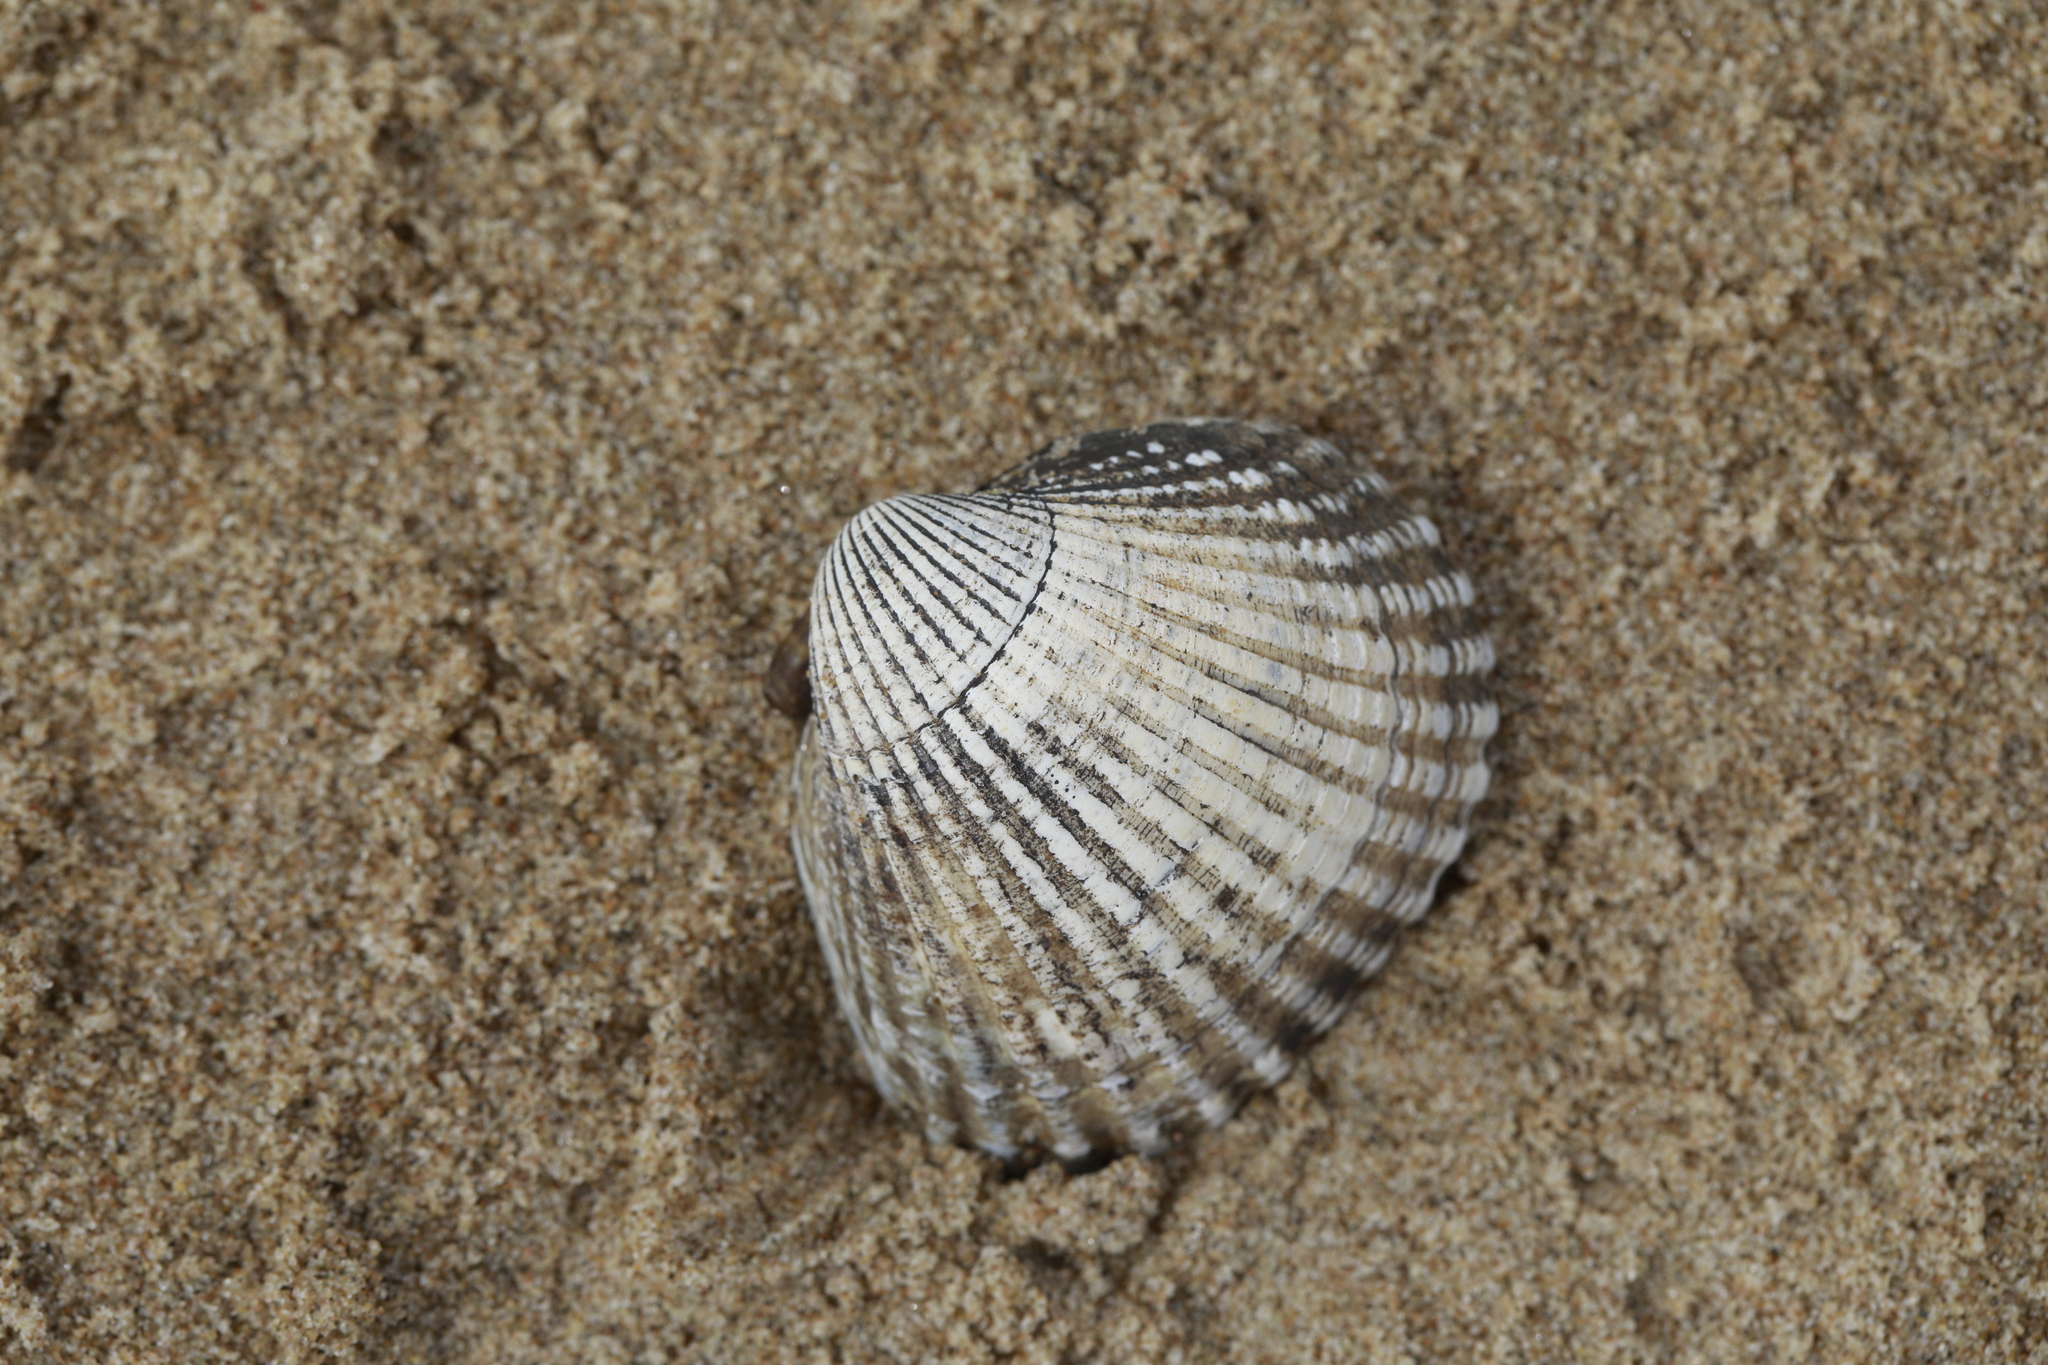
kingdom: Animalia
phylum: Mollusca
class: Bivalvia
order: Cardiida
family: Cardiidae
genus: Cerastoderma
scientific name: Cerastoderma edule
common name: Common cockle
